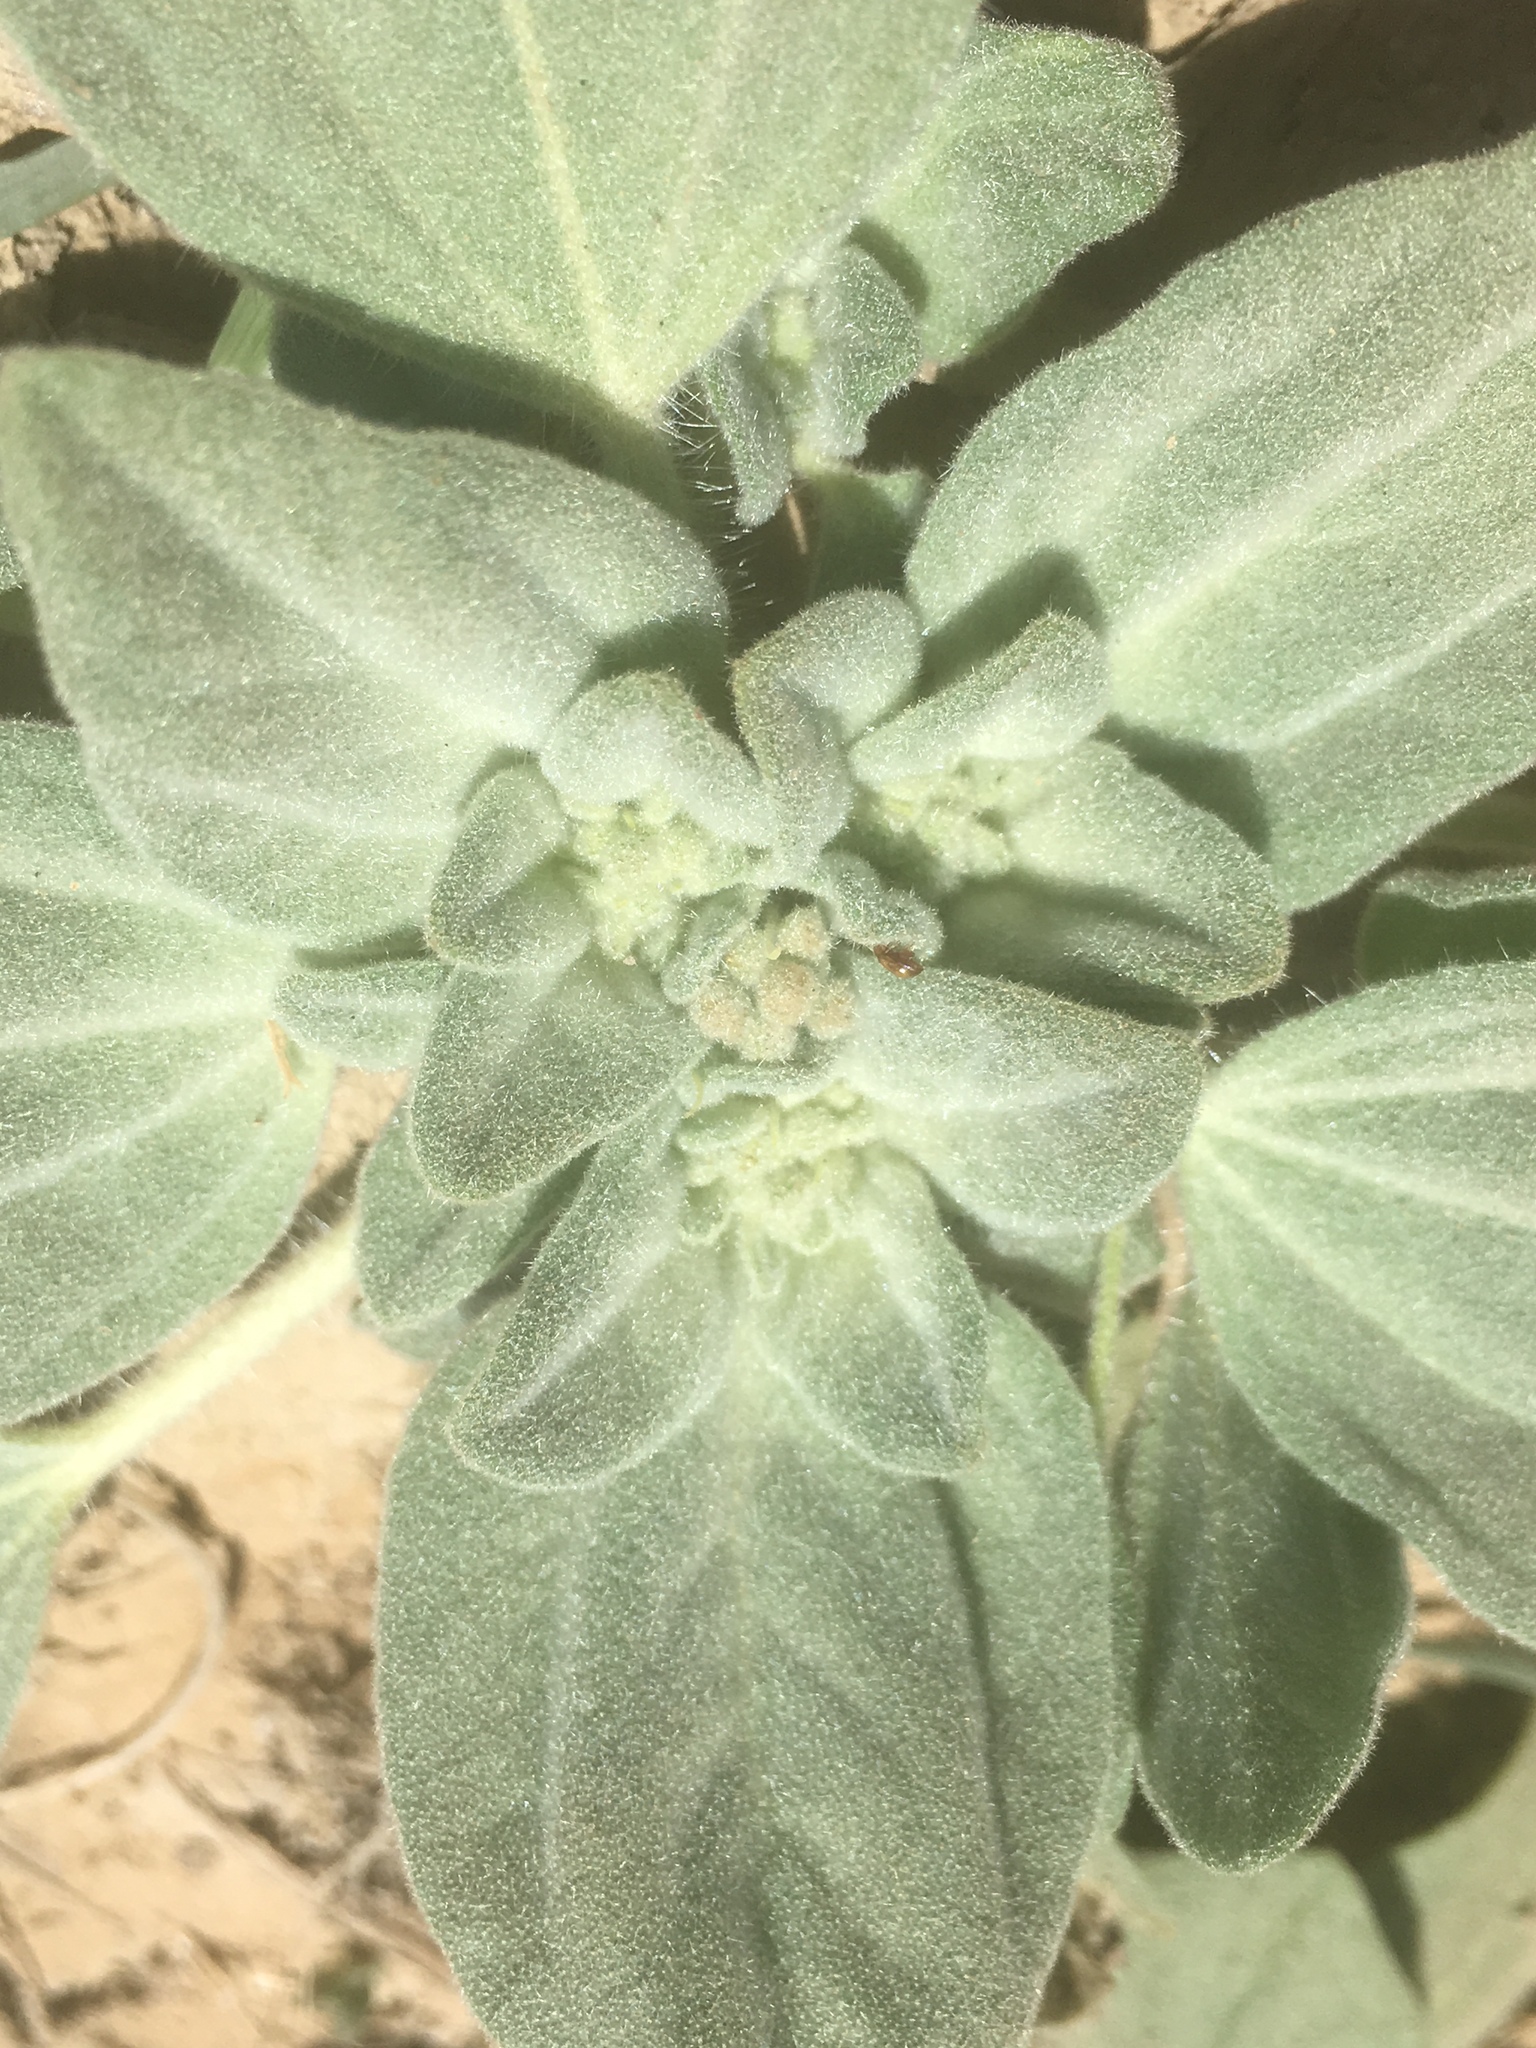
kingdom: Plantae
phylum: Tracheophyta
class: Magnoliopsida
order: Malpighiales
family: Euphorbiaceae
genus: Croton
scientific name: Croton setiger
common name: Dove weed
